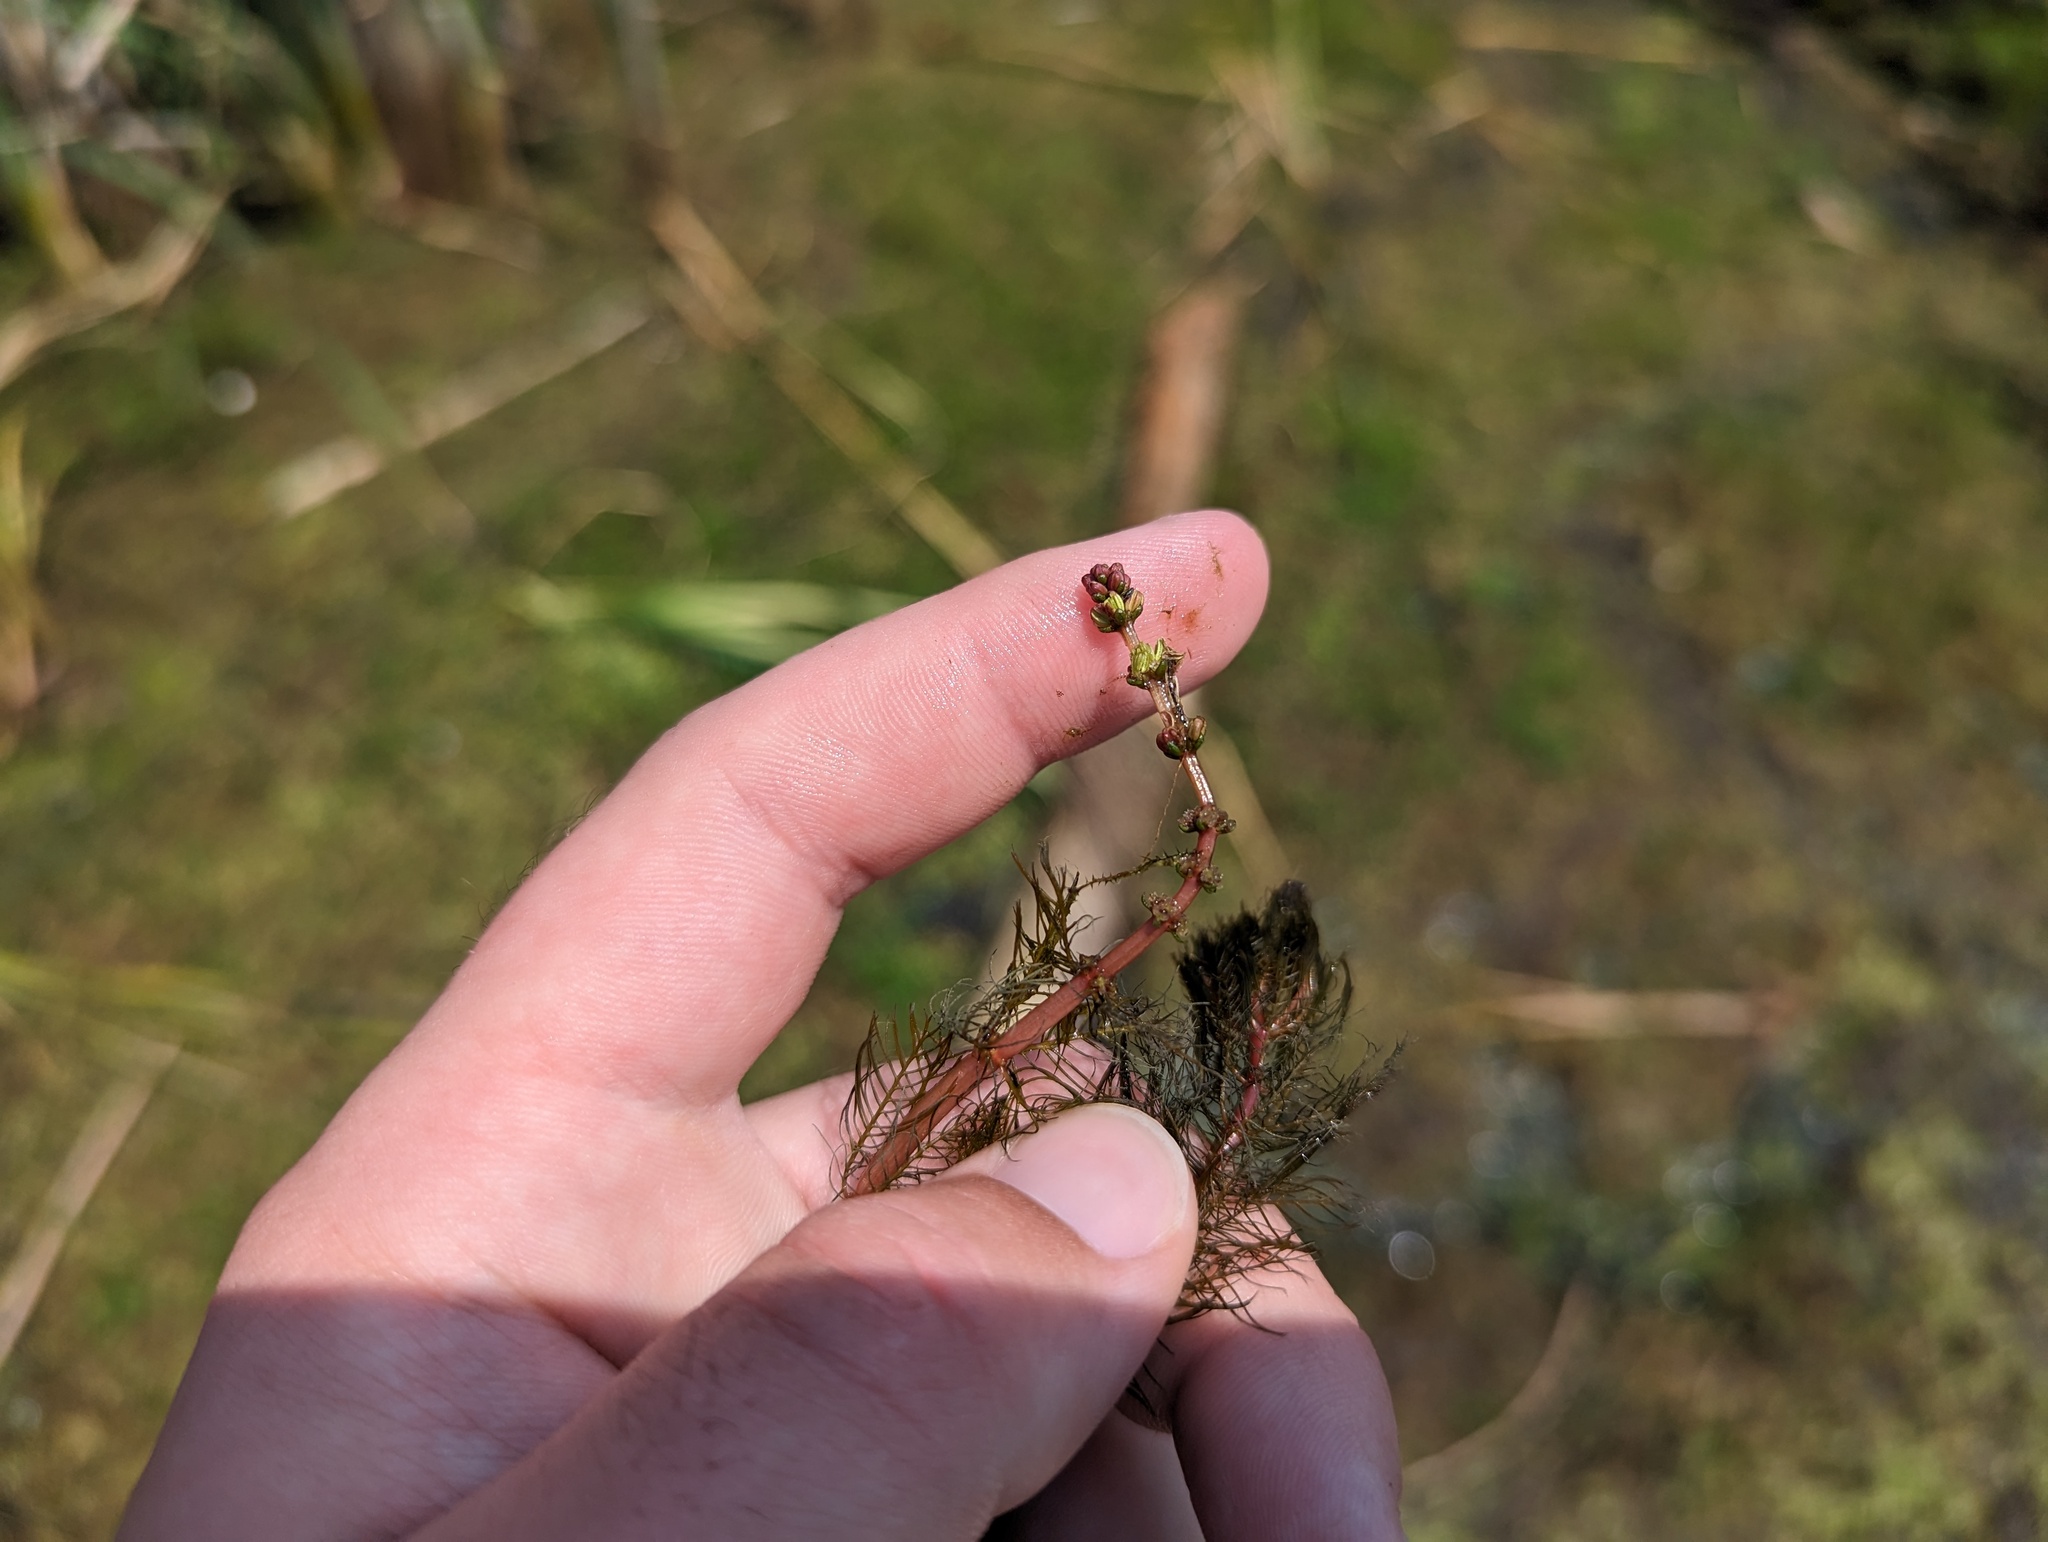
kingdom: Plantae
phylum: Tracheophyta
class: Magnoliopsida
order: Saxifragales
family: Haloragaceae
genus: Myriophyllum
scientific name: Myriophyllum sibiricum
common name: Siberian water-milfoil
